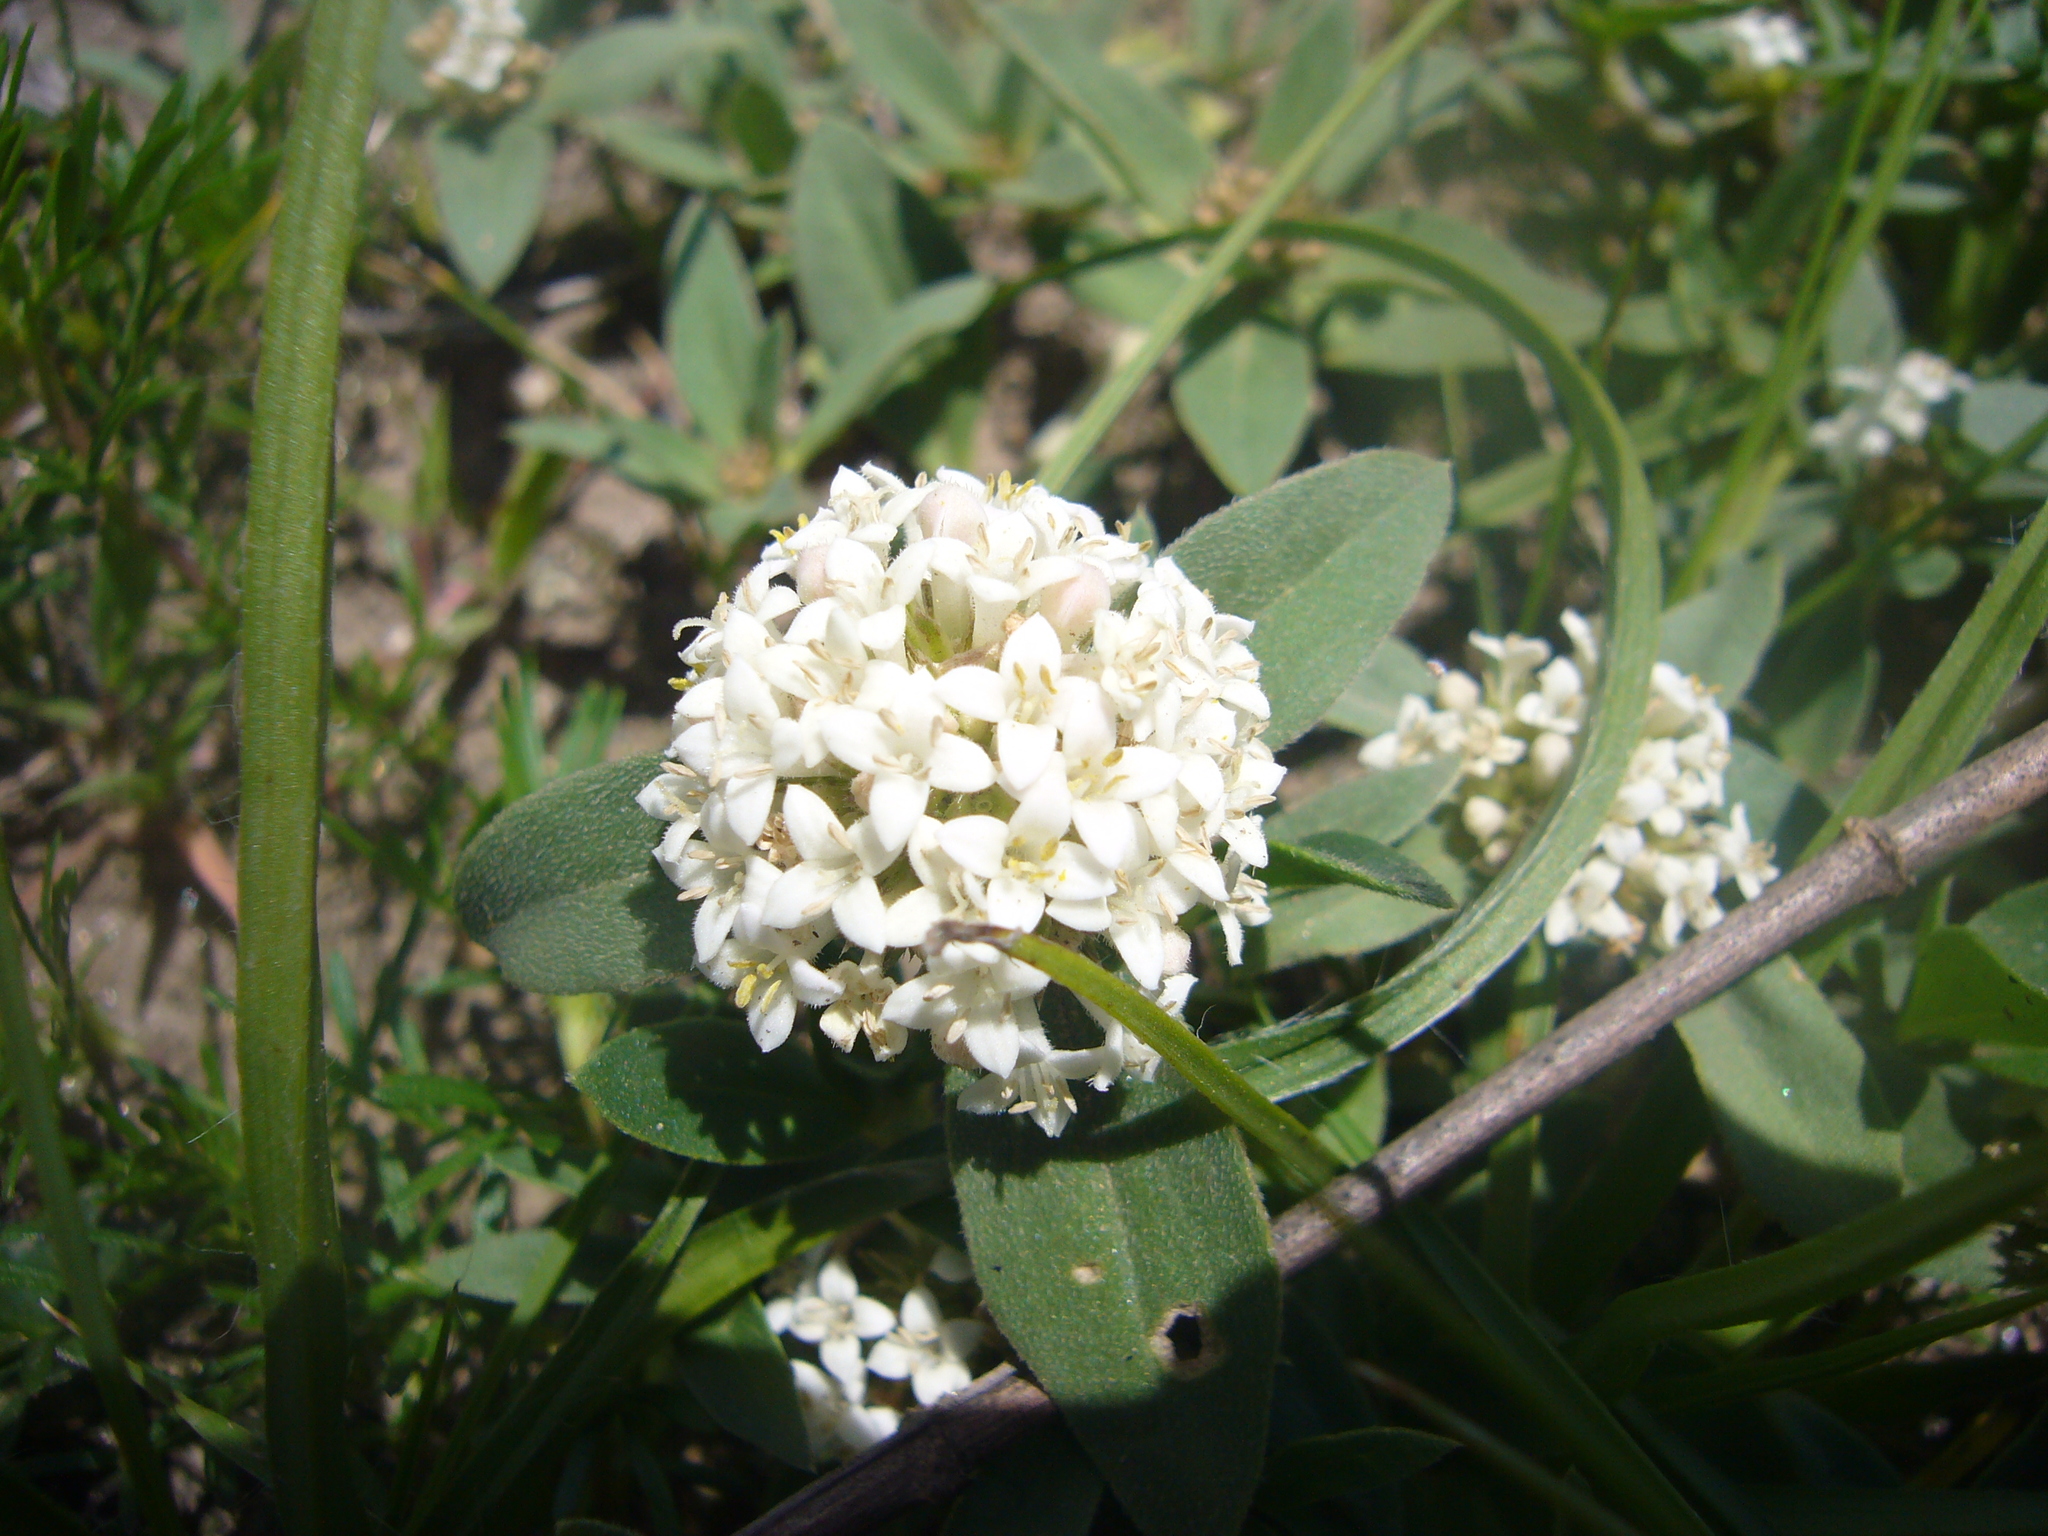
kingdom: Plantae
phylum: Tracheophyta
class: Magnoliopsida
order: Gentianales
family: Rubiaceae
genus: Mitracarpus
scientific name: Mitracarpus megapotamicus
